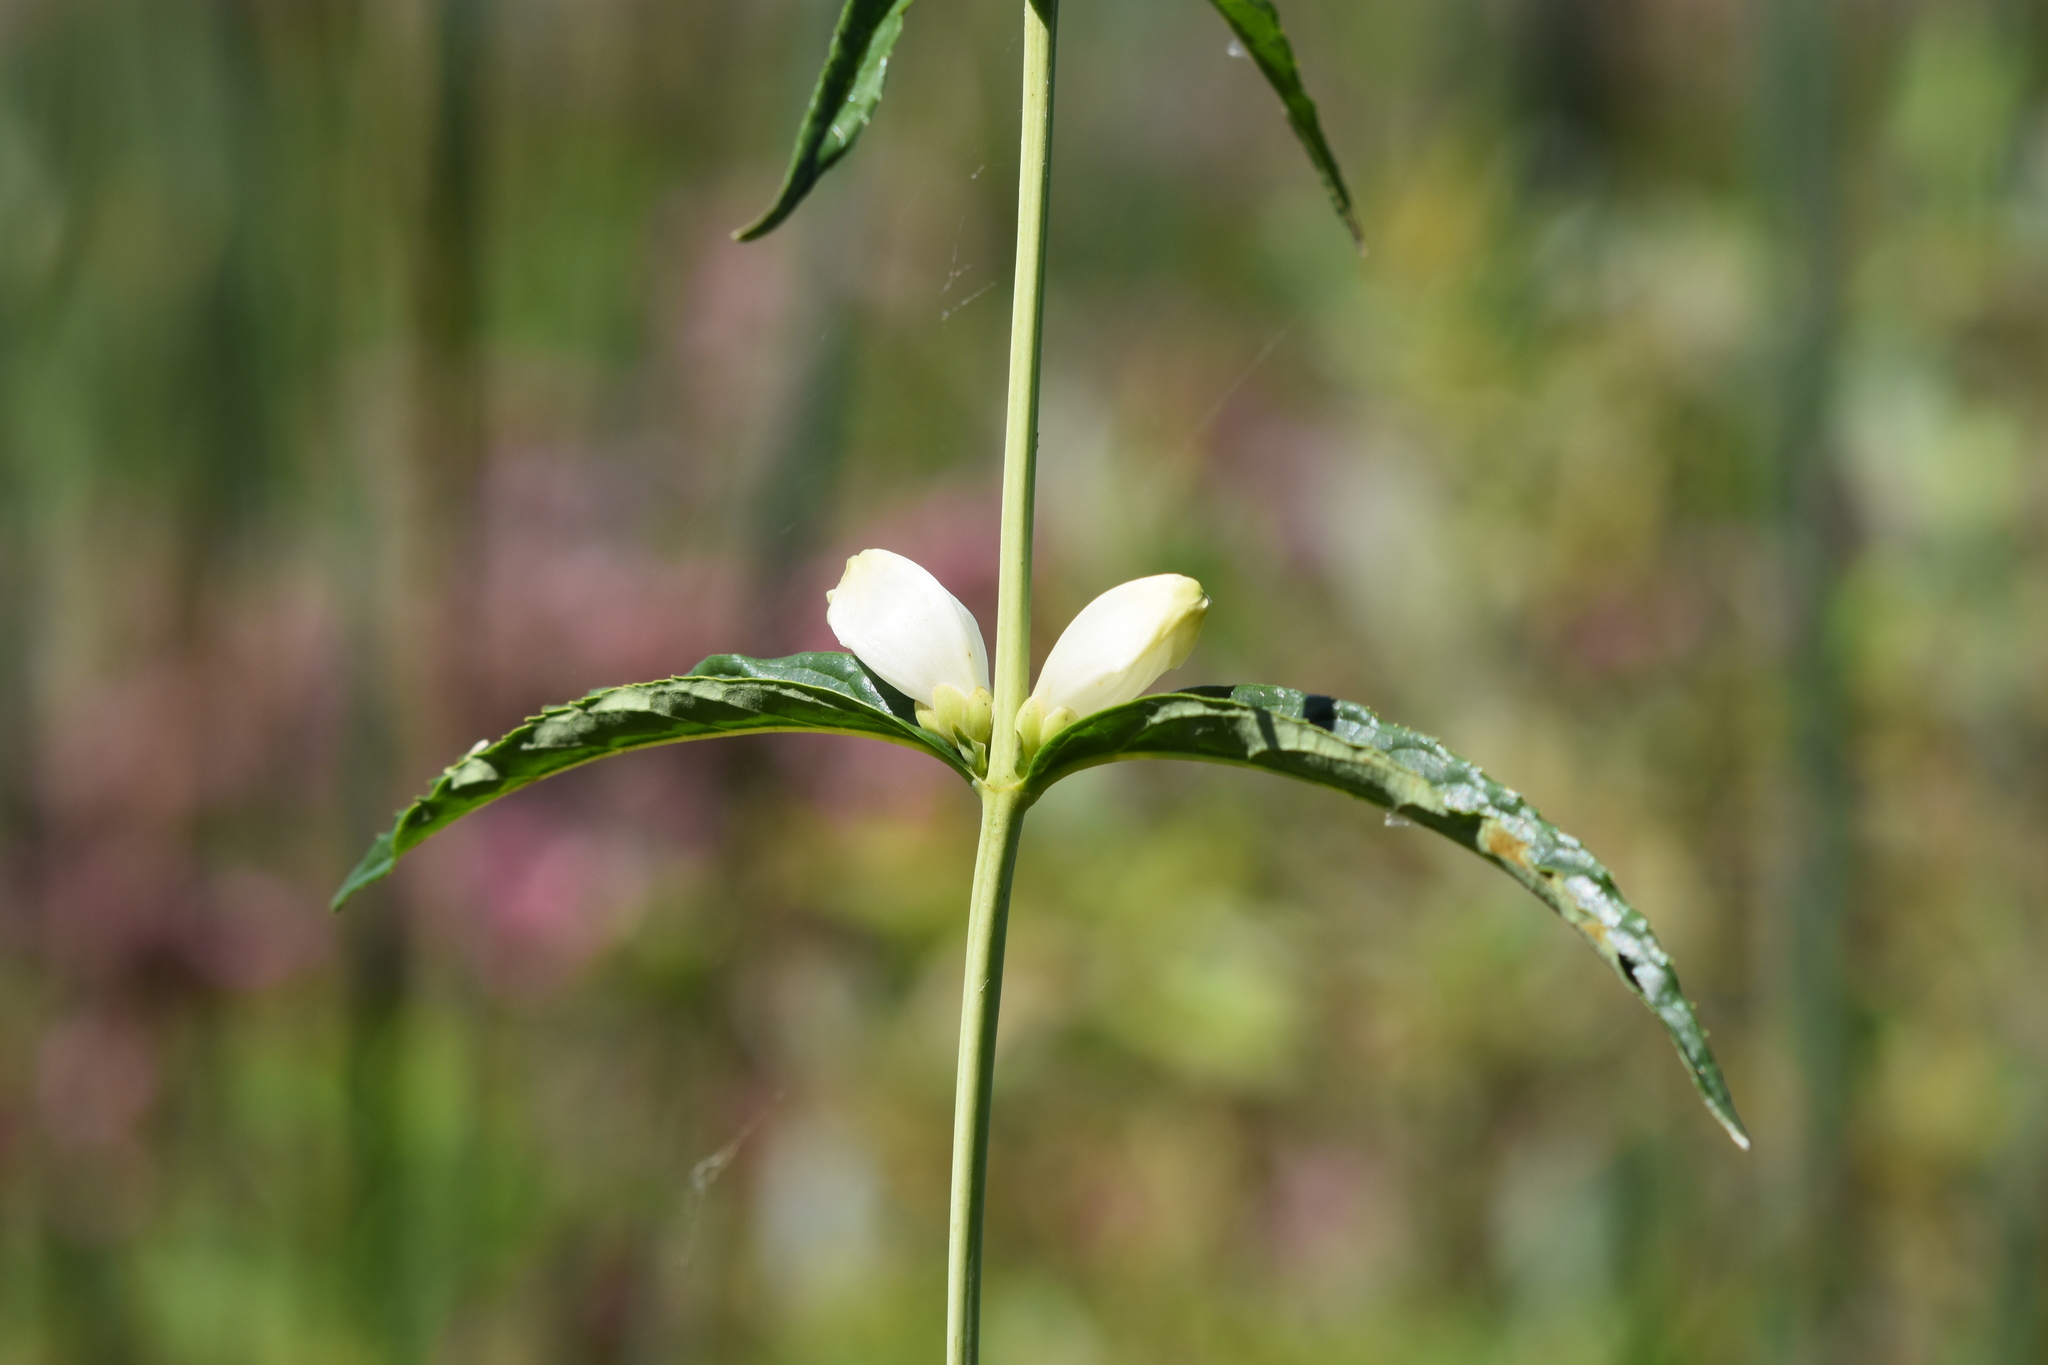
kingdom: Plantae
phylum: Tracheophyta
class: Magnoliopsida
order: Lamiales
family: Plantaginaceae
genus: Chelone
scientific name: Chelone glabra
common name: Snakehead
